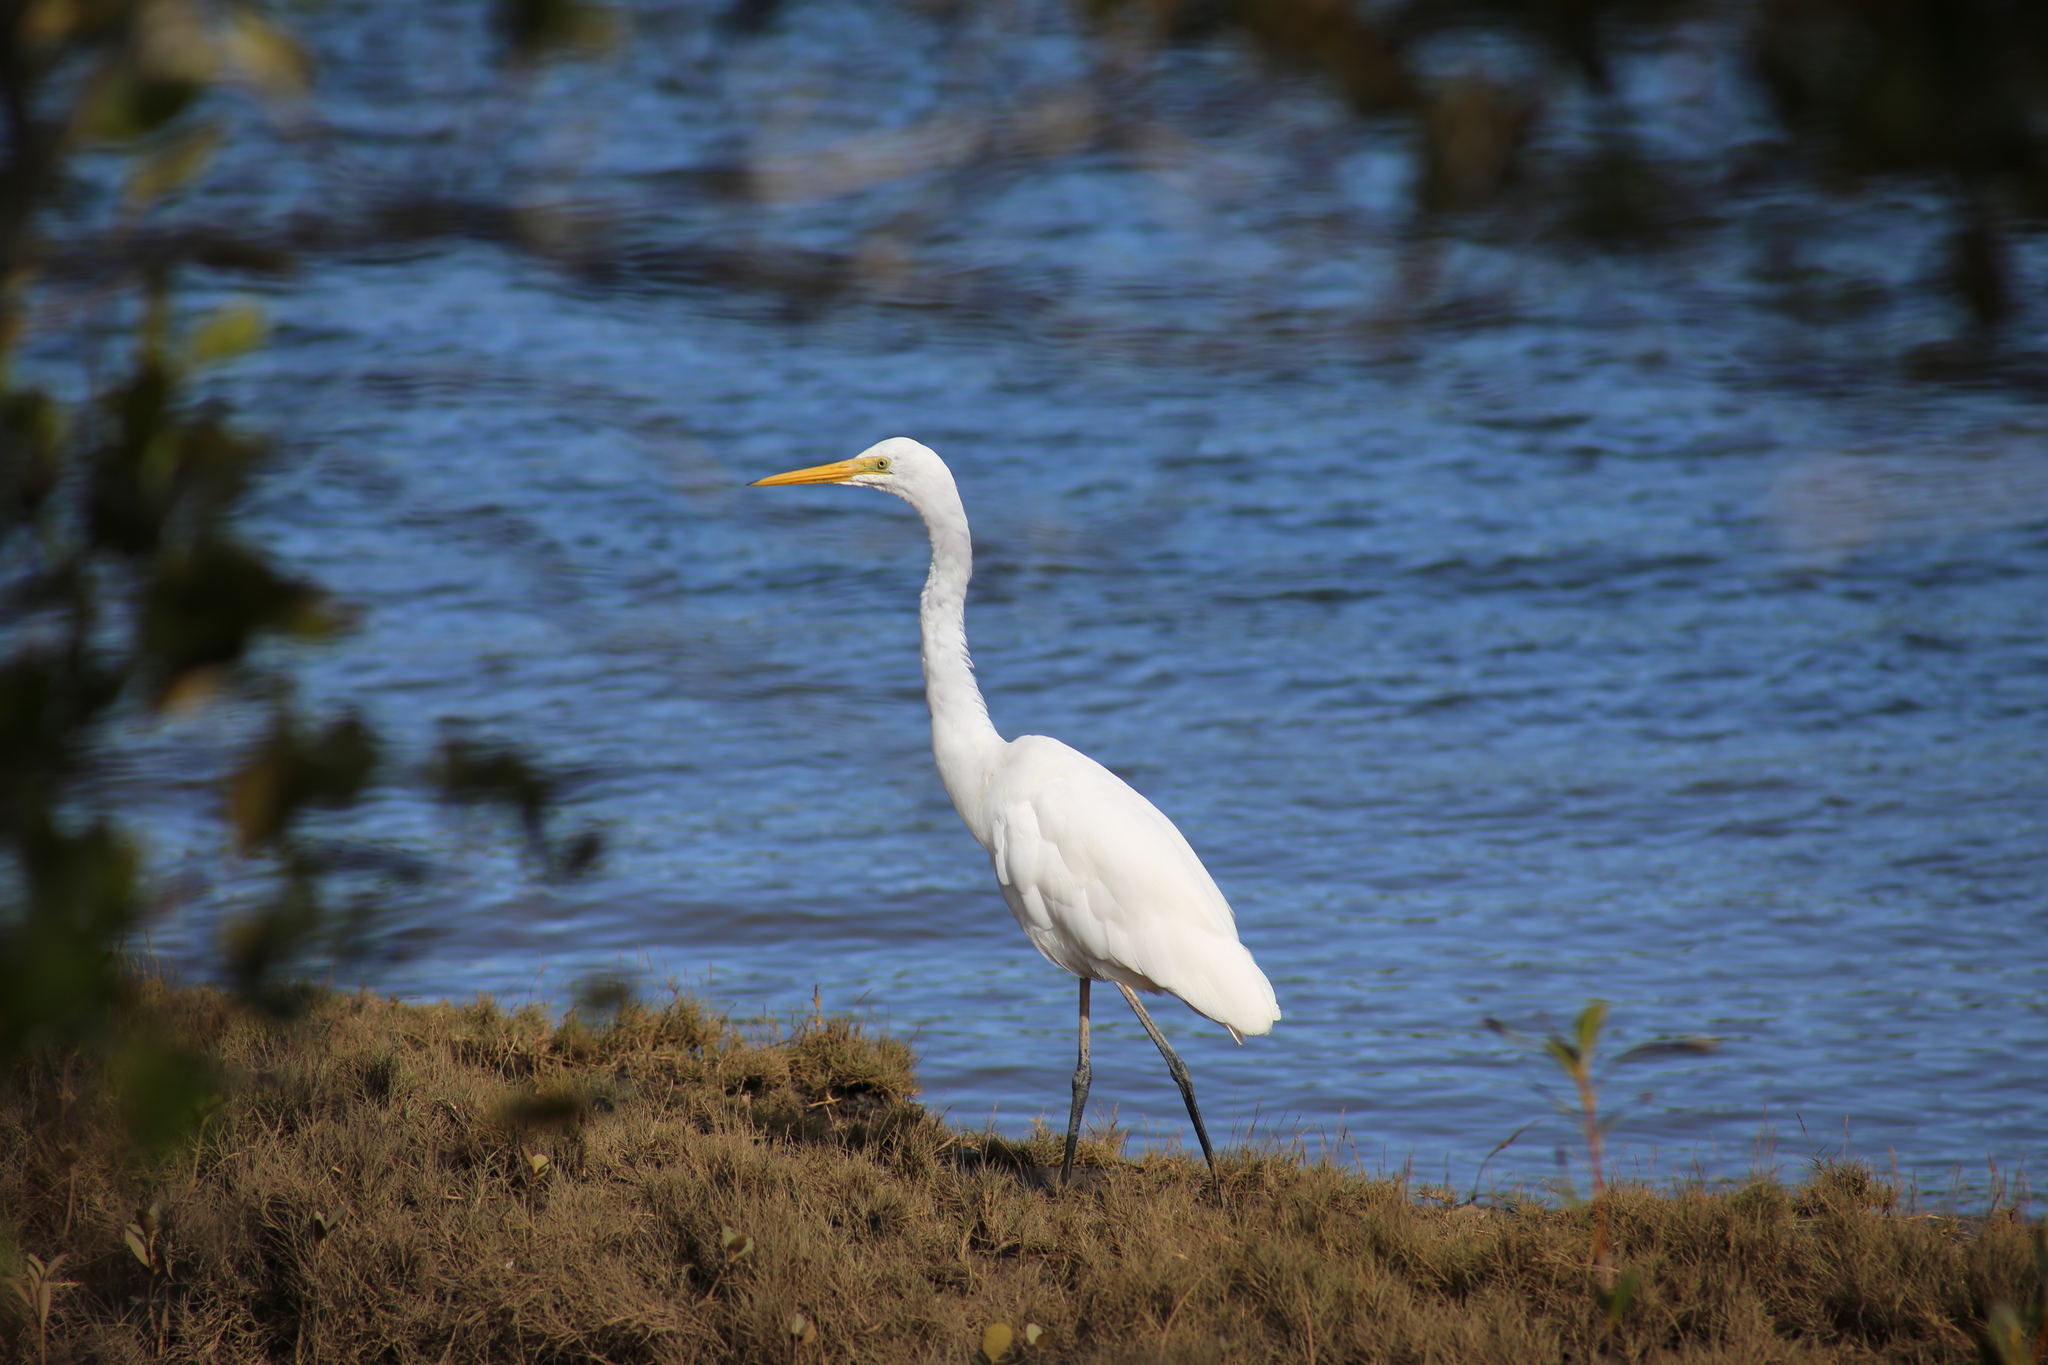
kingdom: Animalia
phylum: Chordata
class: Aves
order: Pelecaniformes
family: Ardeidae
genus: Ardea
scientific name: Ardea alba
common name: Great egret
